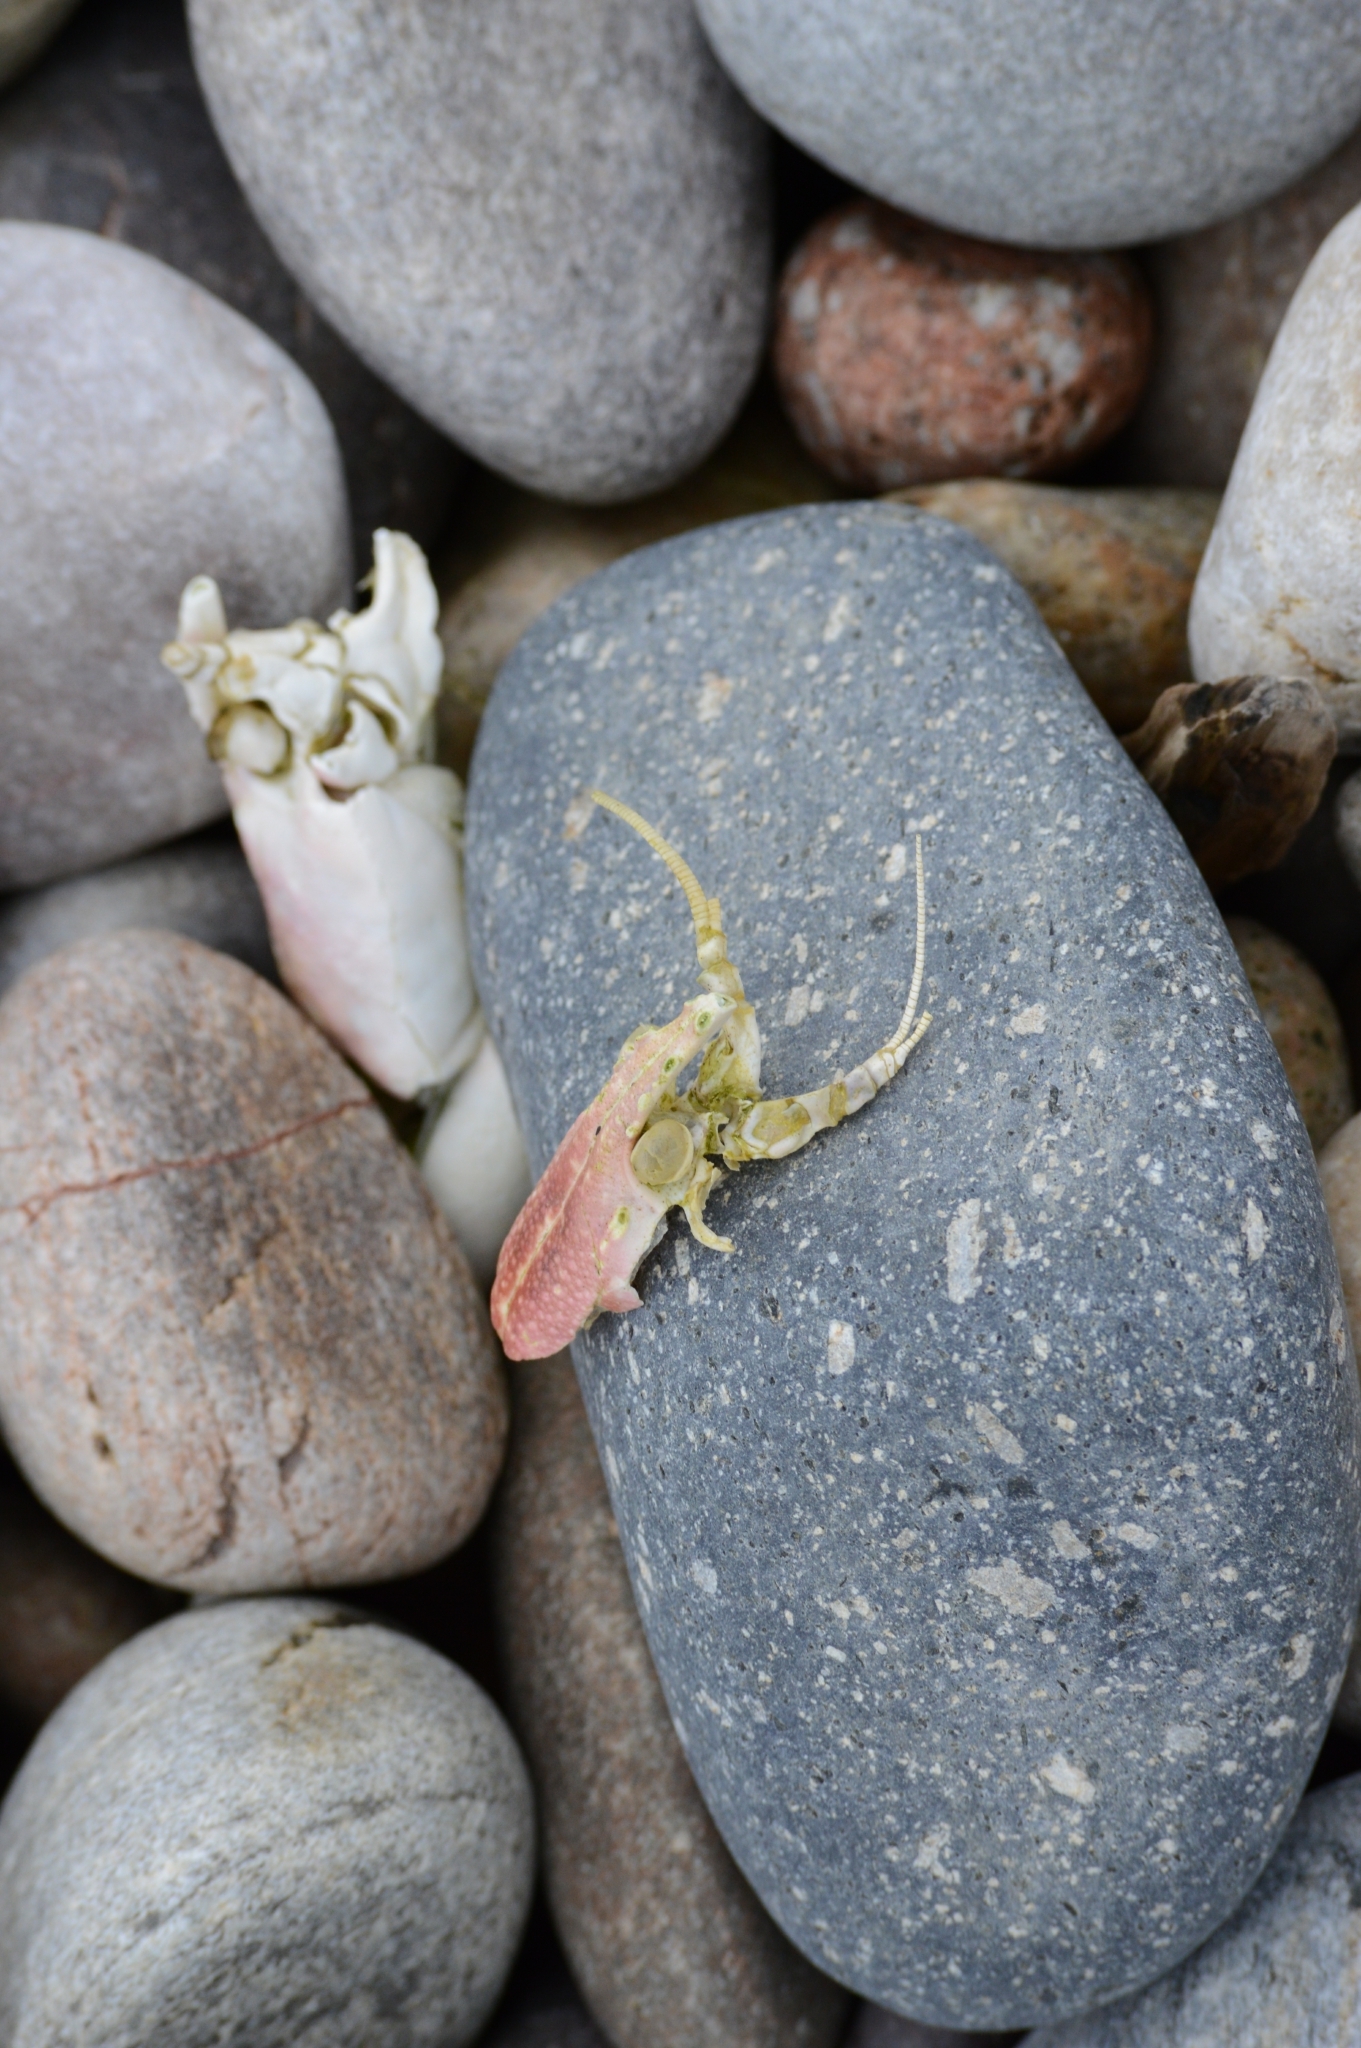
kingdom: Animalia
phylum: Arthropoda
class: Malacostraca
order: Decapoda
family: Nephropidae
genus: Homarus
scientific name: Homarus gammarus
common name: European lobster
